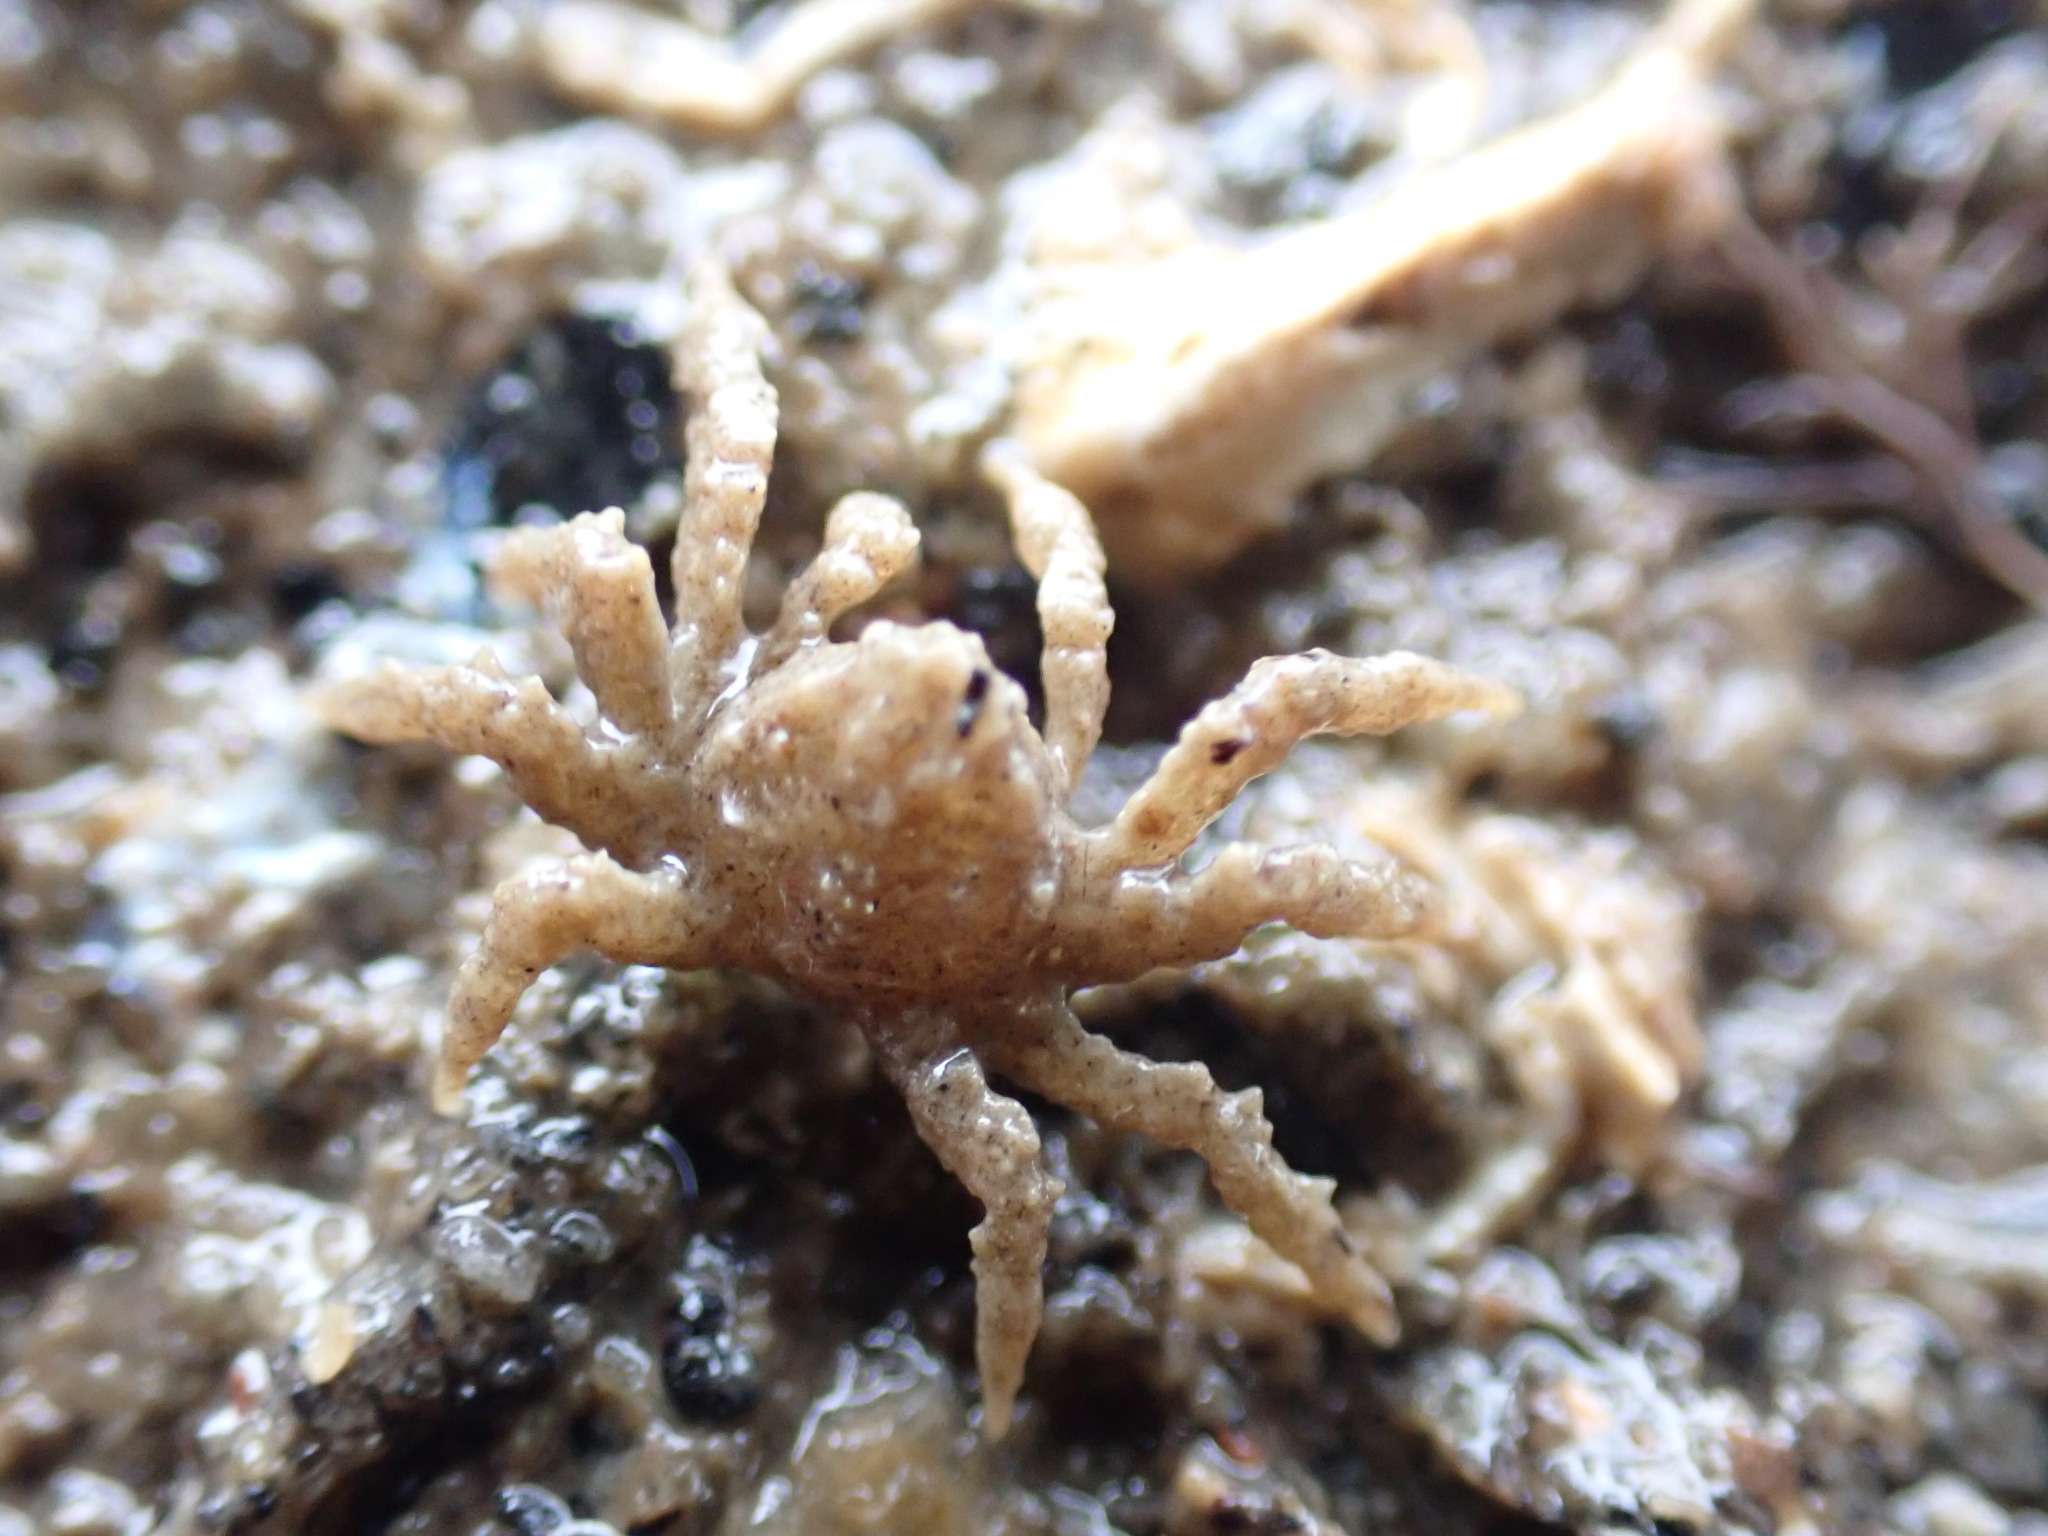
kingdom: Animalia
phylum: Arthropoda
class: Malacostraca
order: Decapoda
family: Hymenosomatidae
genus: Neohymenicus
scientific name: Neohymenicus pubescens
